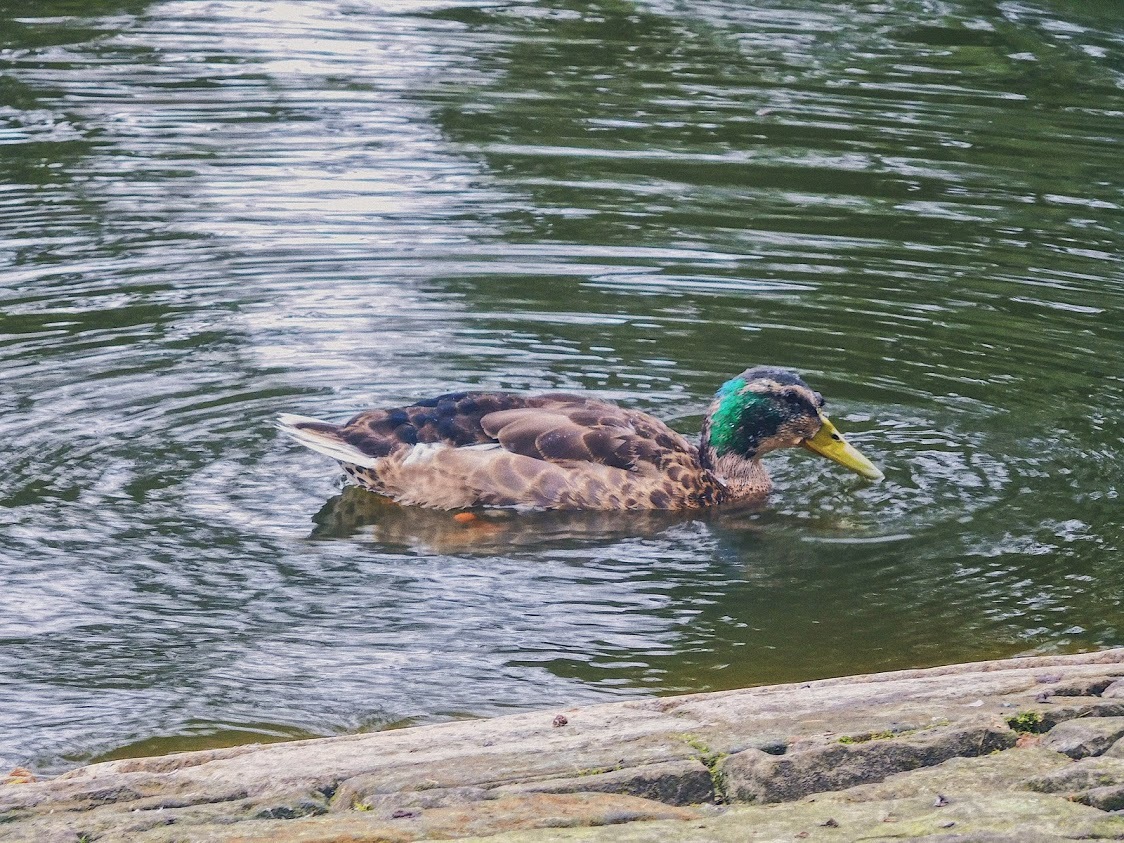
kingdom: Animalia
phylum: Chordata
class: Aves
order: Anseriformes
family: Anatidae
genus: Anas
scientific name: Anas platyrhynchos
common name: Mallard
